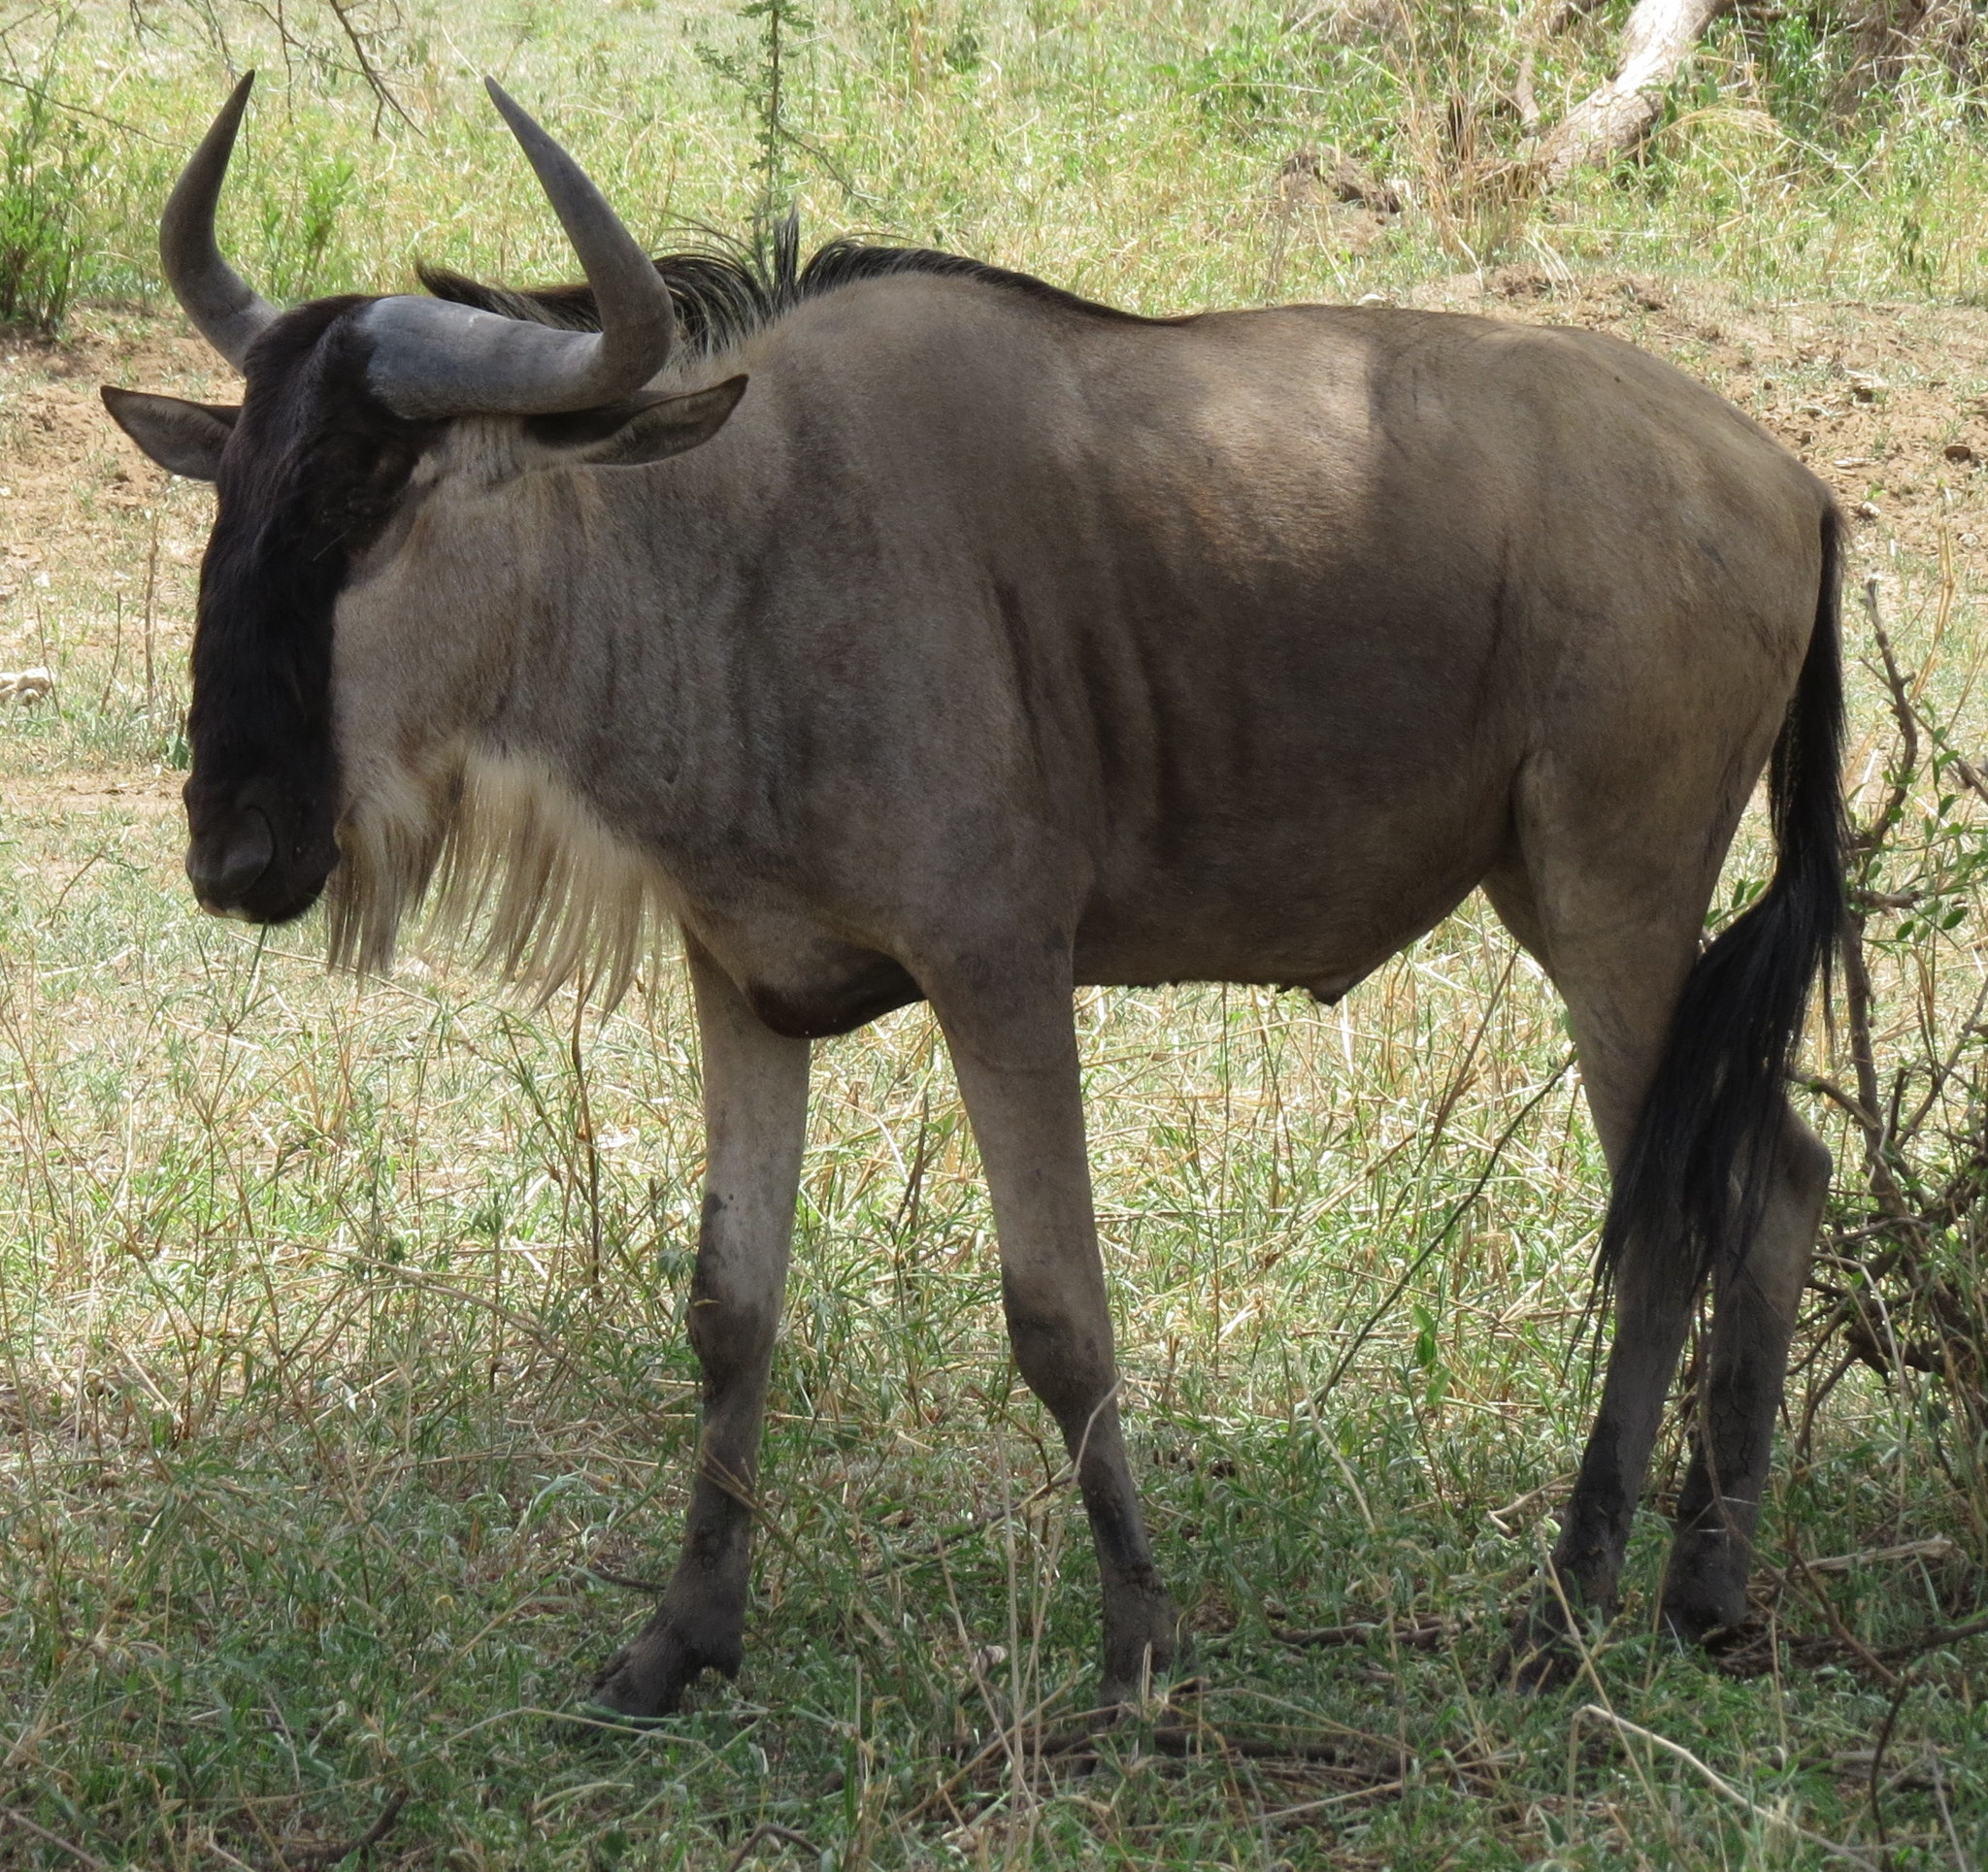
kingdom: Animalia
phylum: Chordata
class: Mammalia
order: Artiodactyla
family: Bovidae
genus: Connochaetes
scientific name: Connochaetes taurinus
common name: Blue wildebeest
